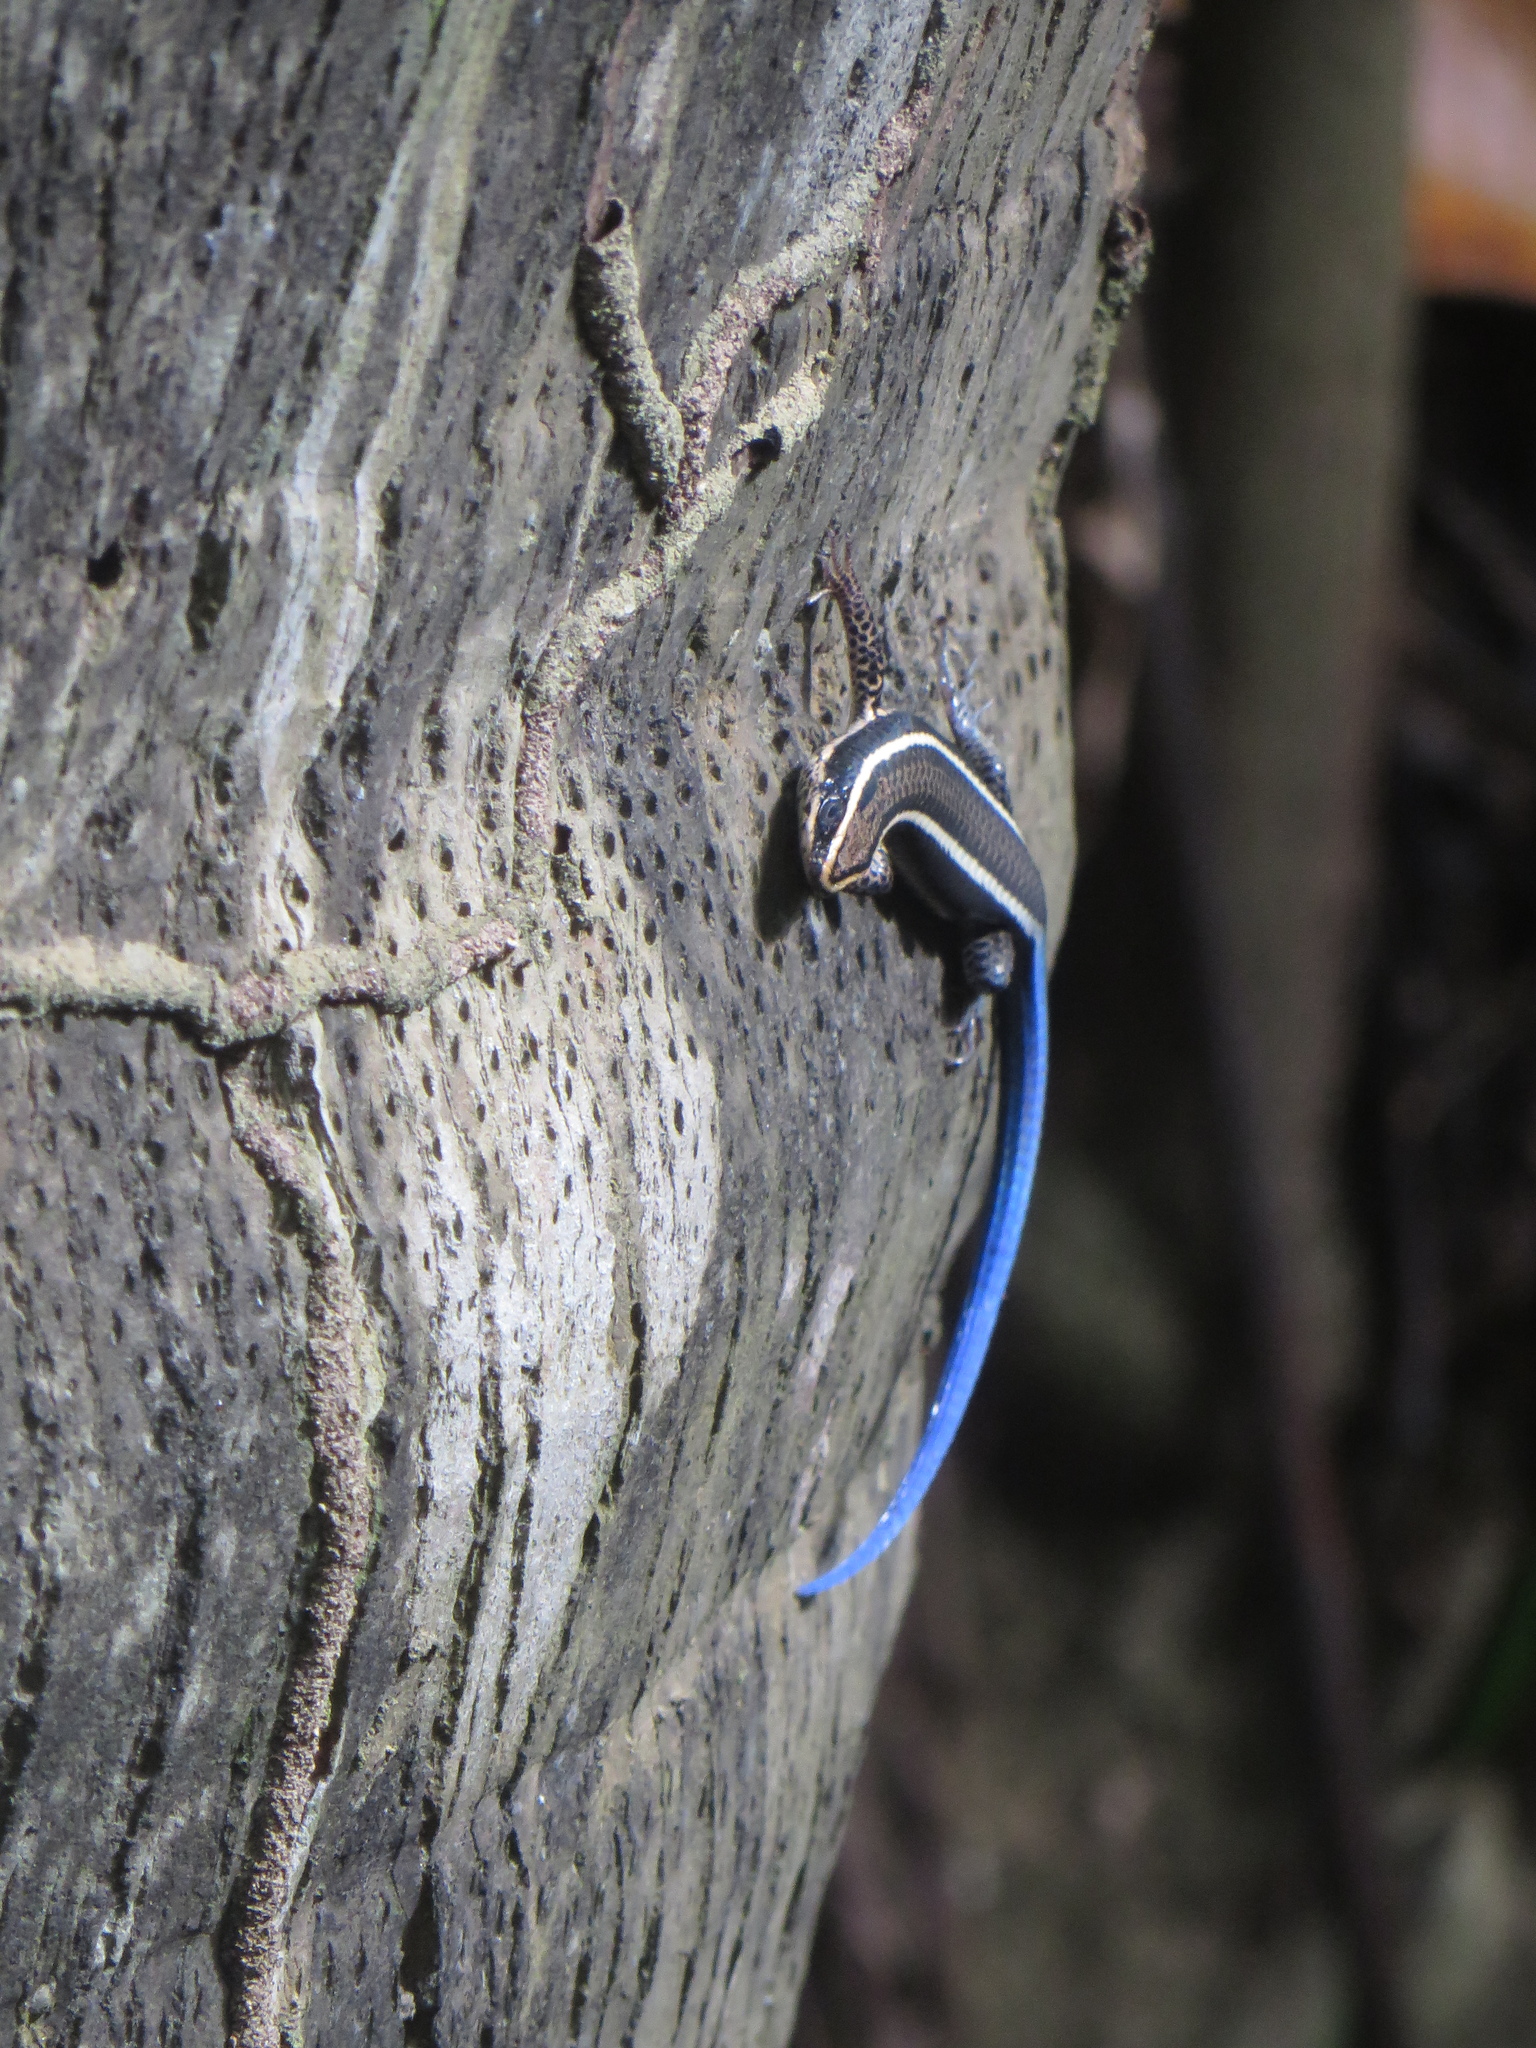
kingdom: Animalia
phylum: Chordata
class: Squamata
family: Gymnophthalmidae
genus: Tretioscincus
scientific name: Tretioscincus bifasciatus
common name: Rio magdalena tegu
